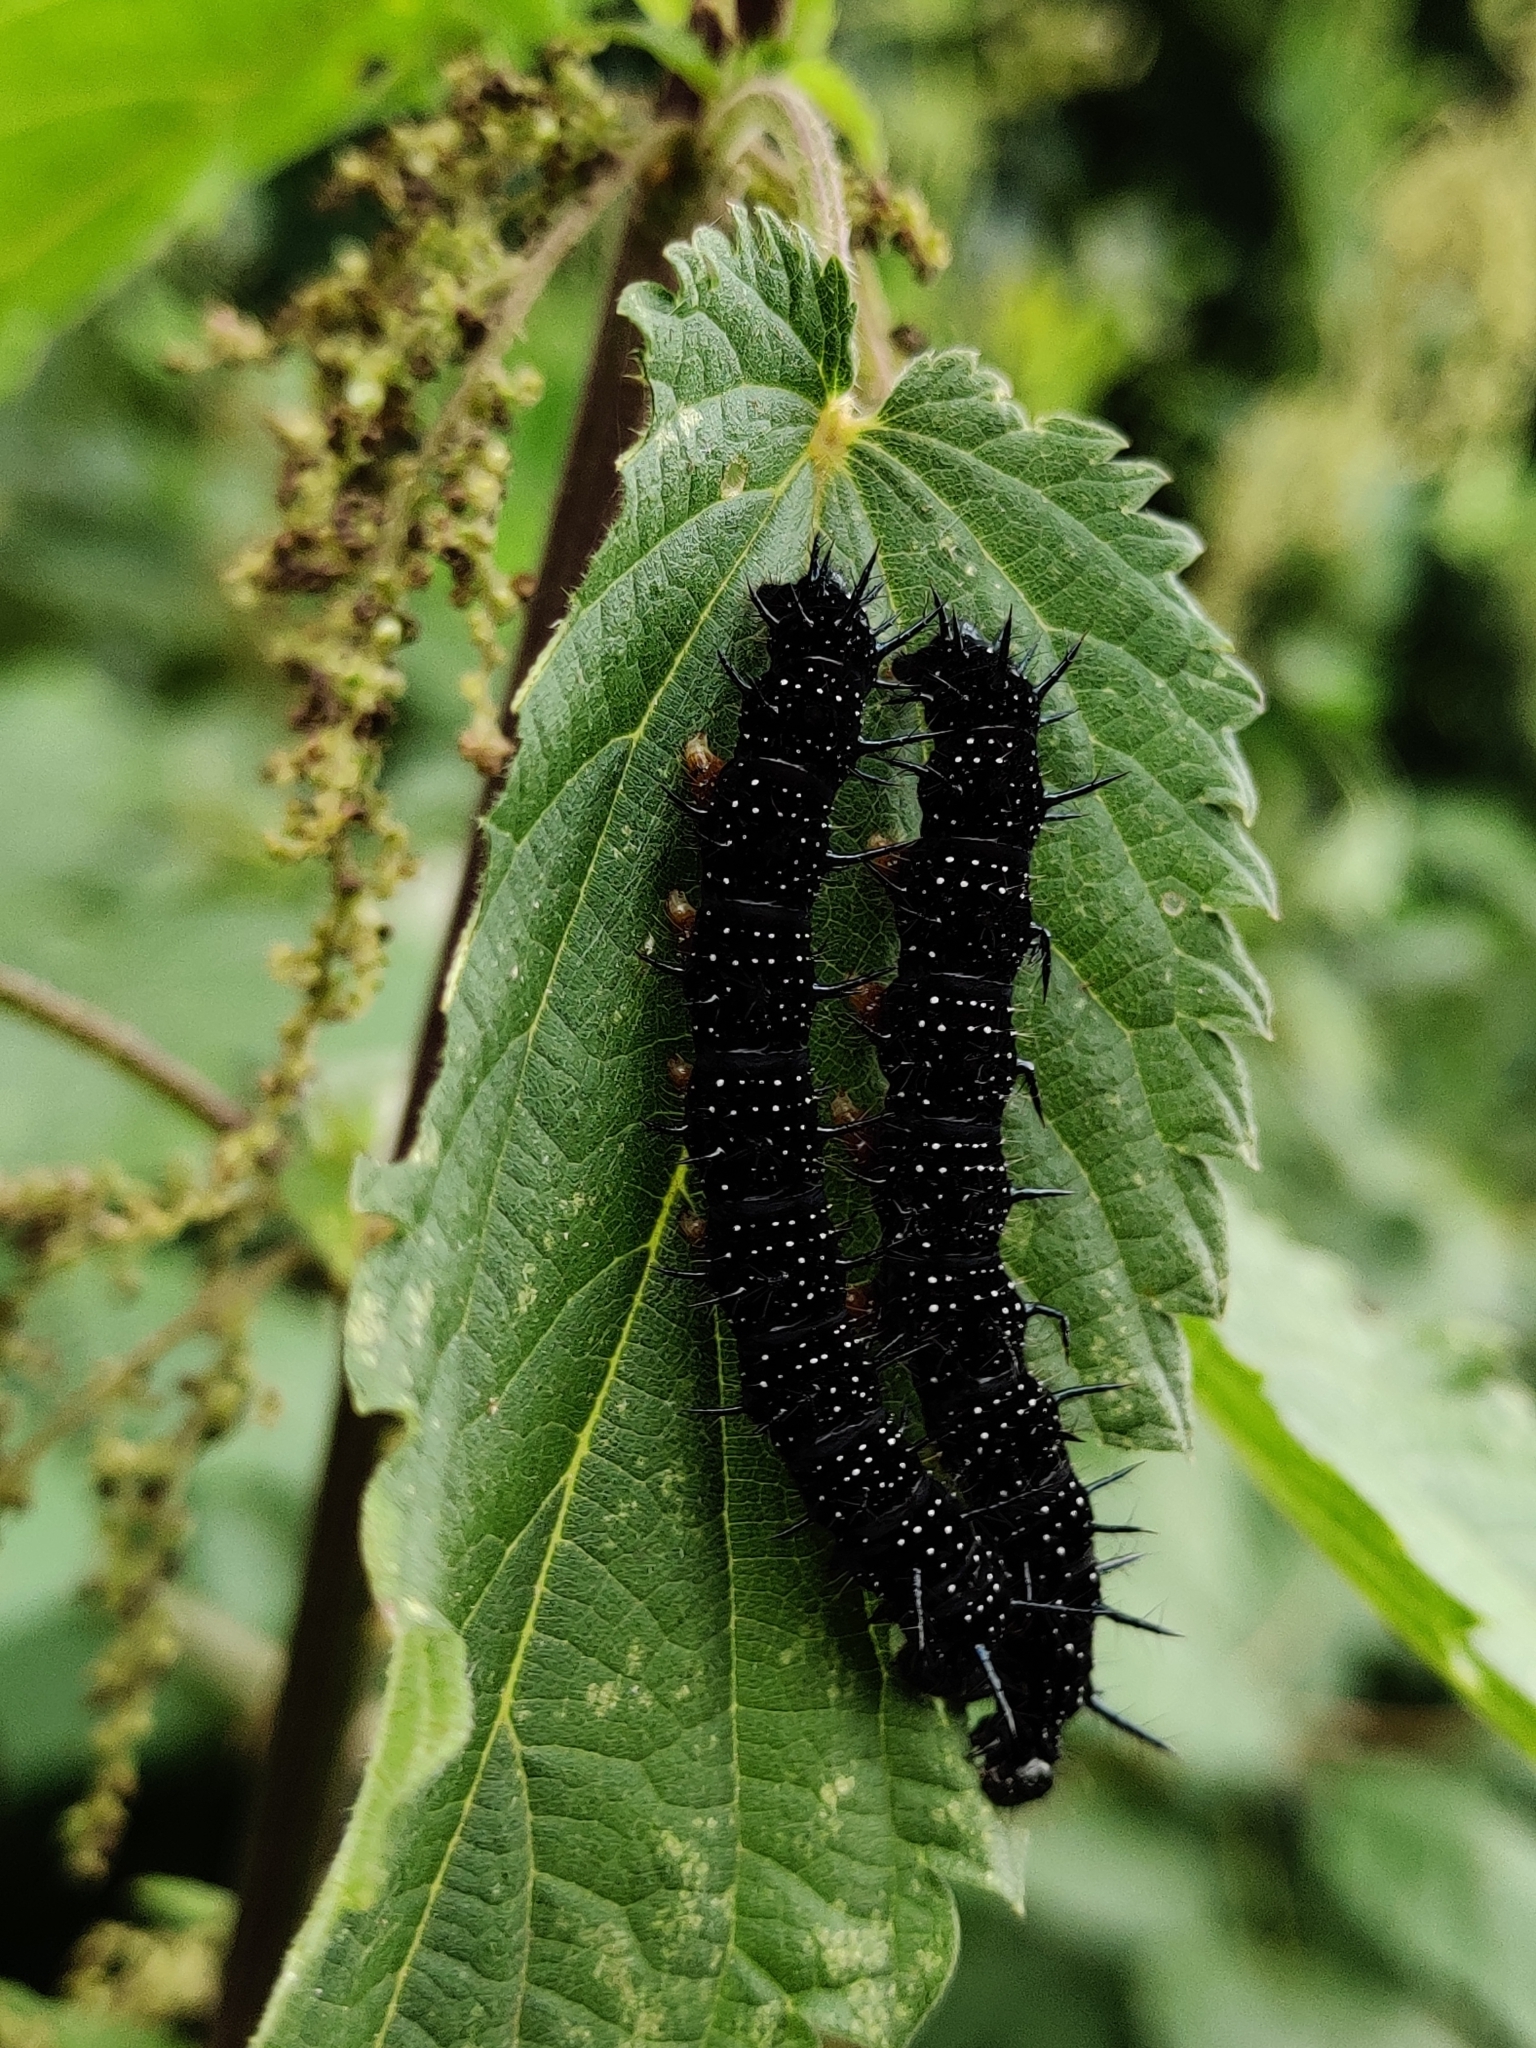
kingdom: Animalia
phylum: Arthropoda
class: Insecta
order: Lepidoptera
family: Nymphalidae
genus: Aglais
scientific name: Aglais io
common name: Peacock
